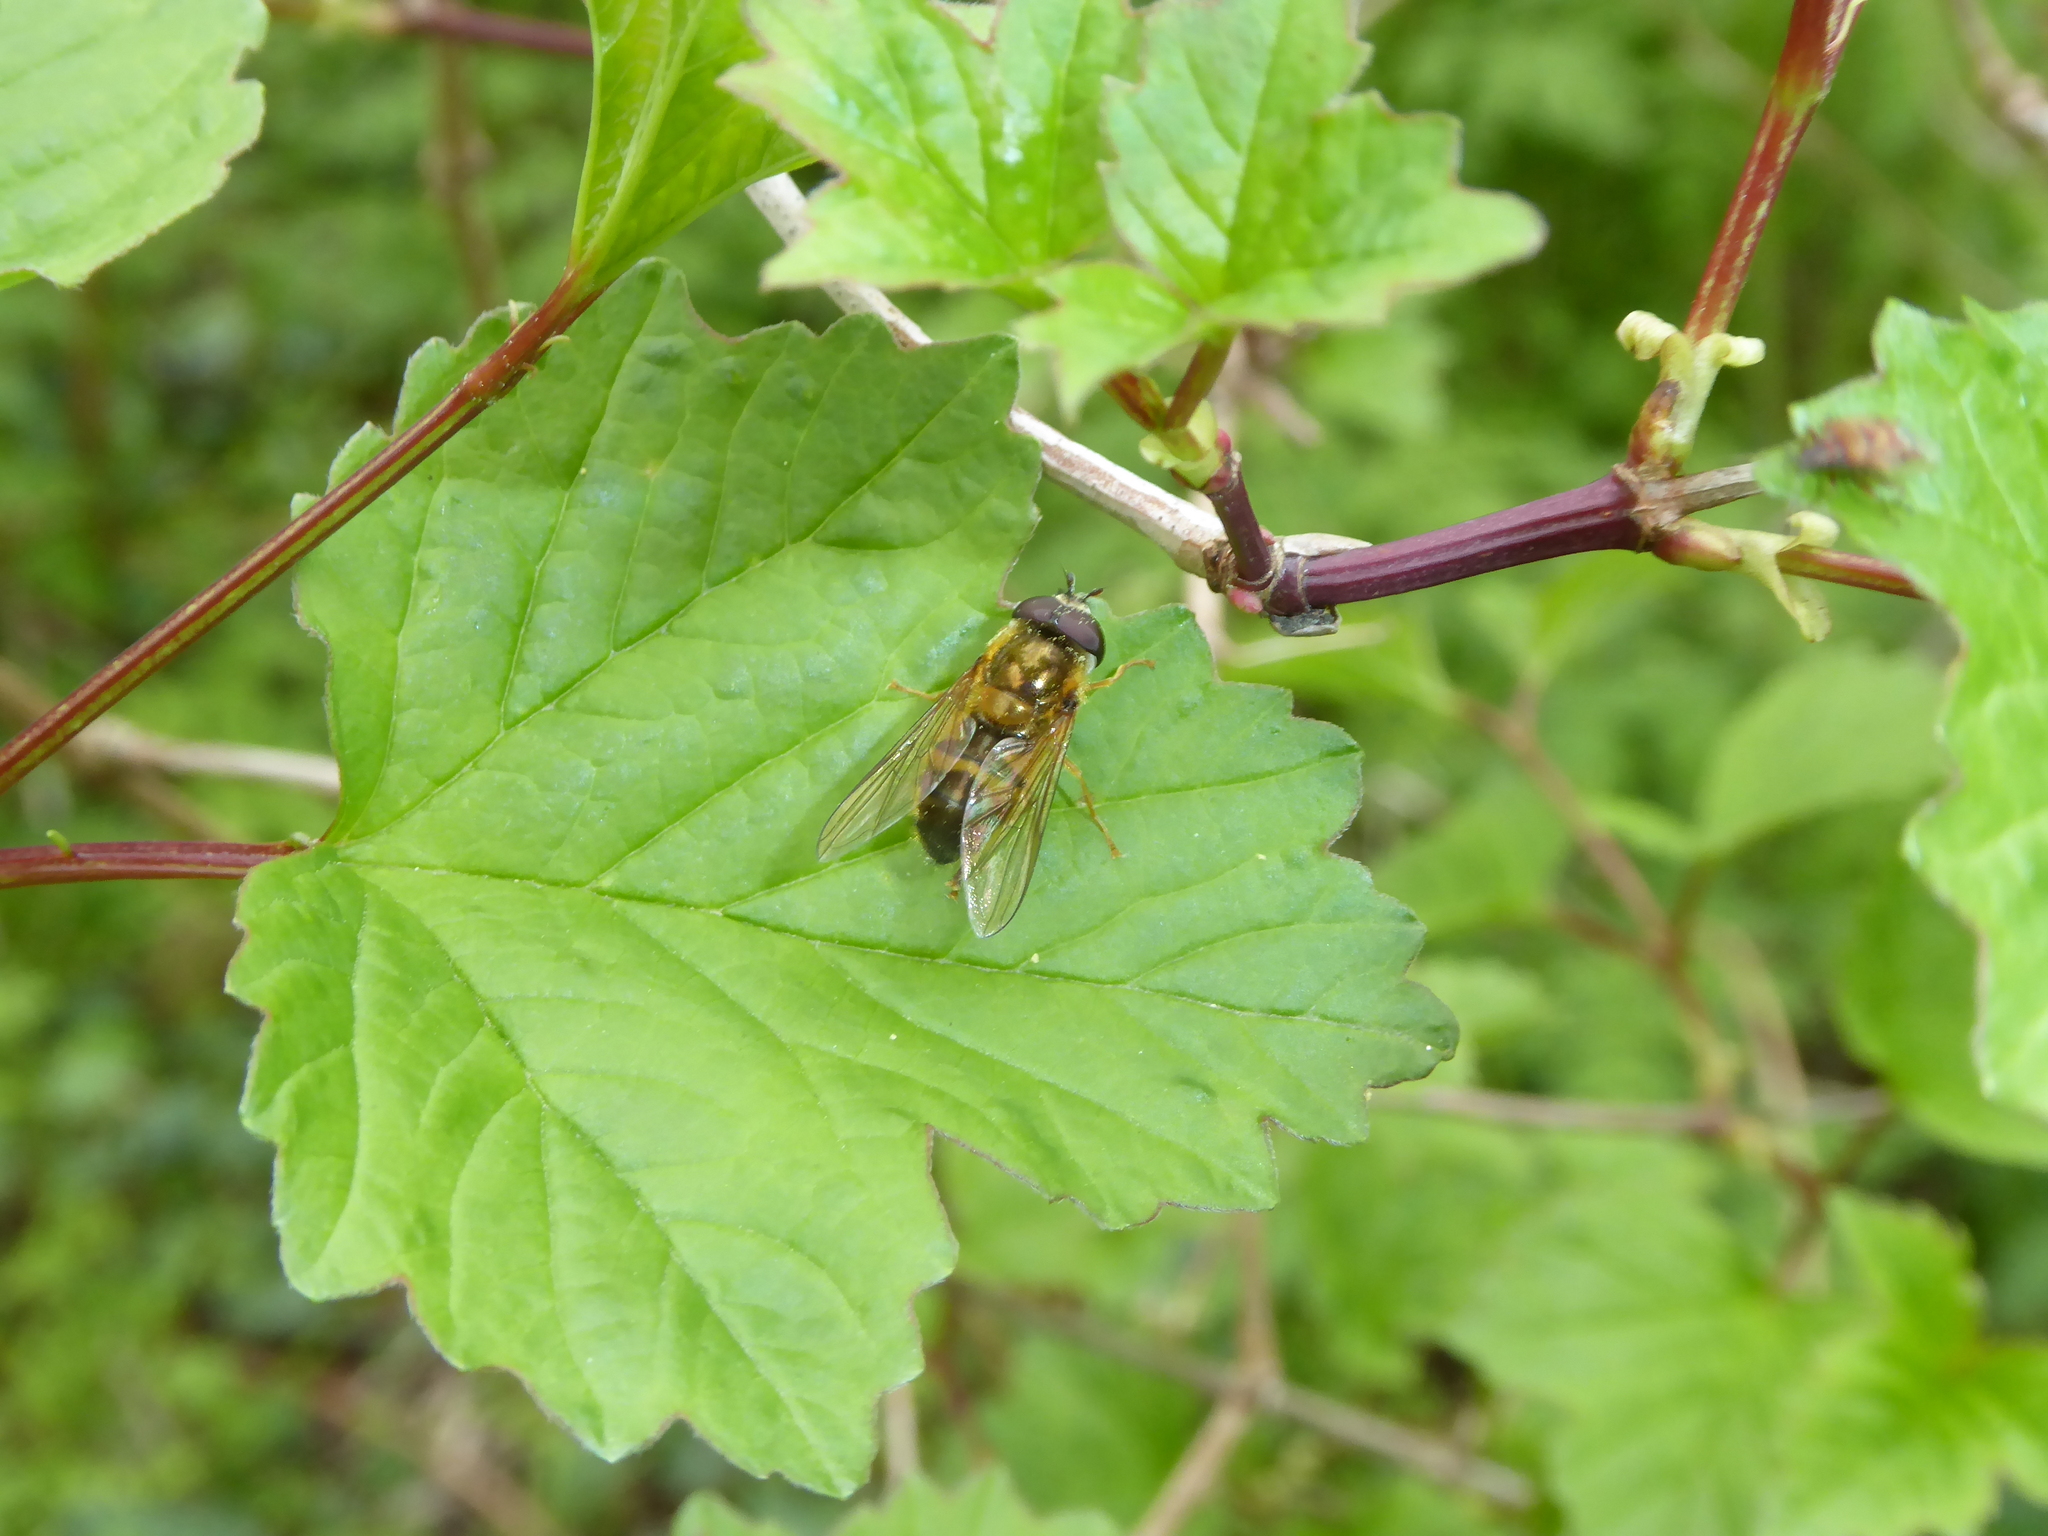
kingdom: Animalia
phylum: Arthropoda
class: Insecta
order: Diptera
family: Syrphidae
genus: Epistrophe
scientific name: Epistrophe eligans
